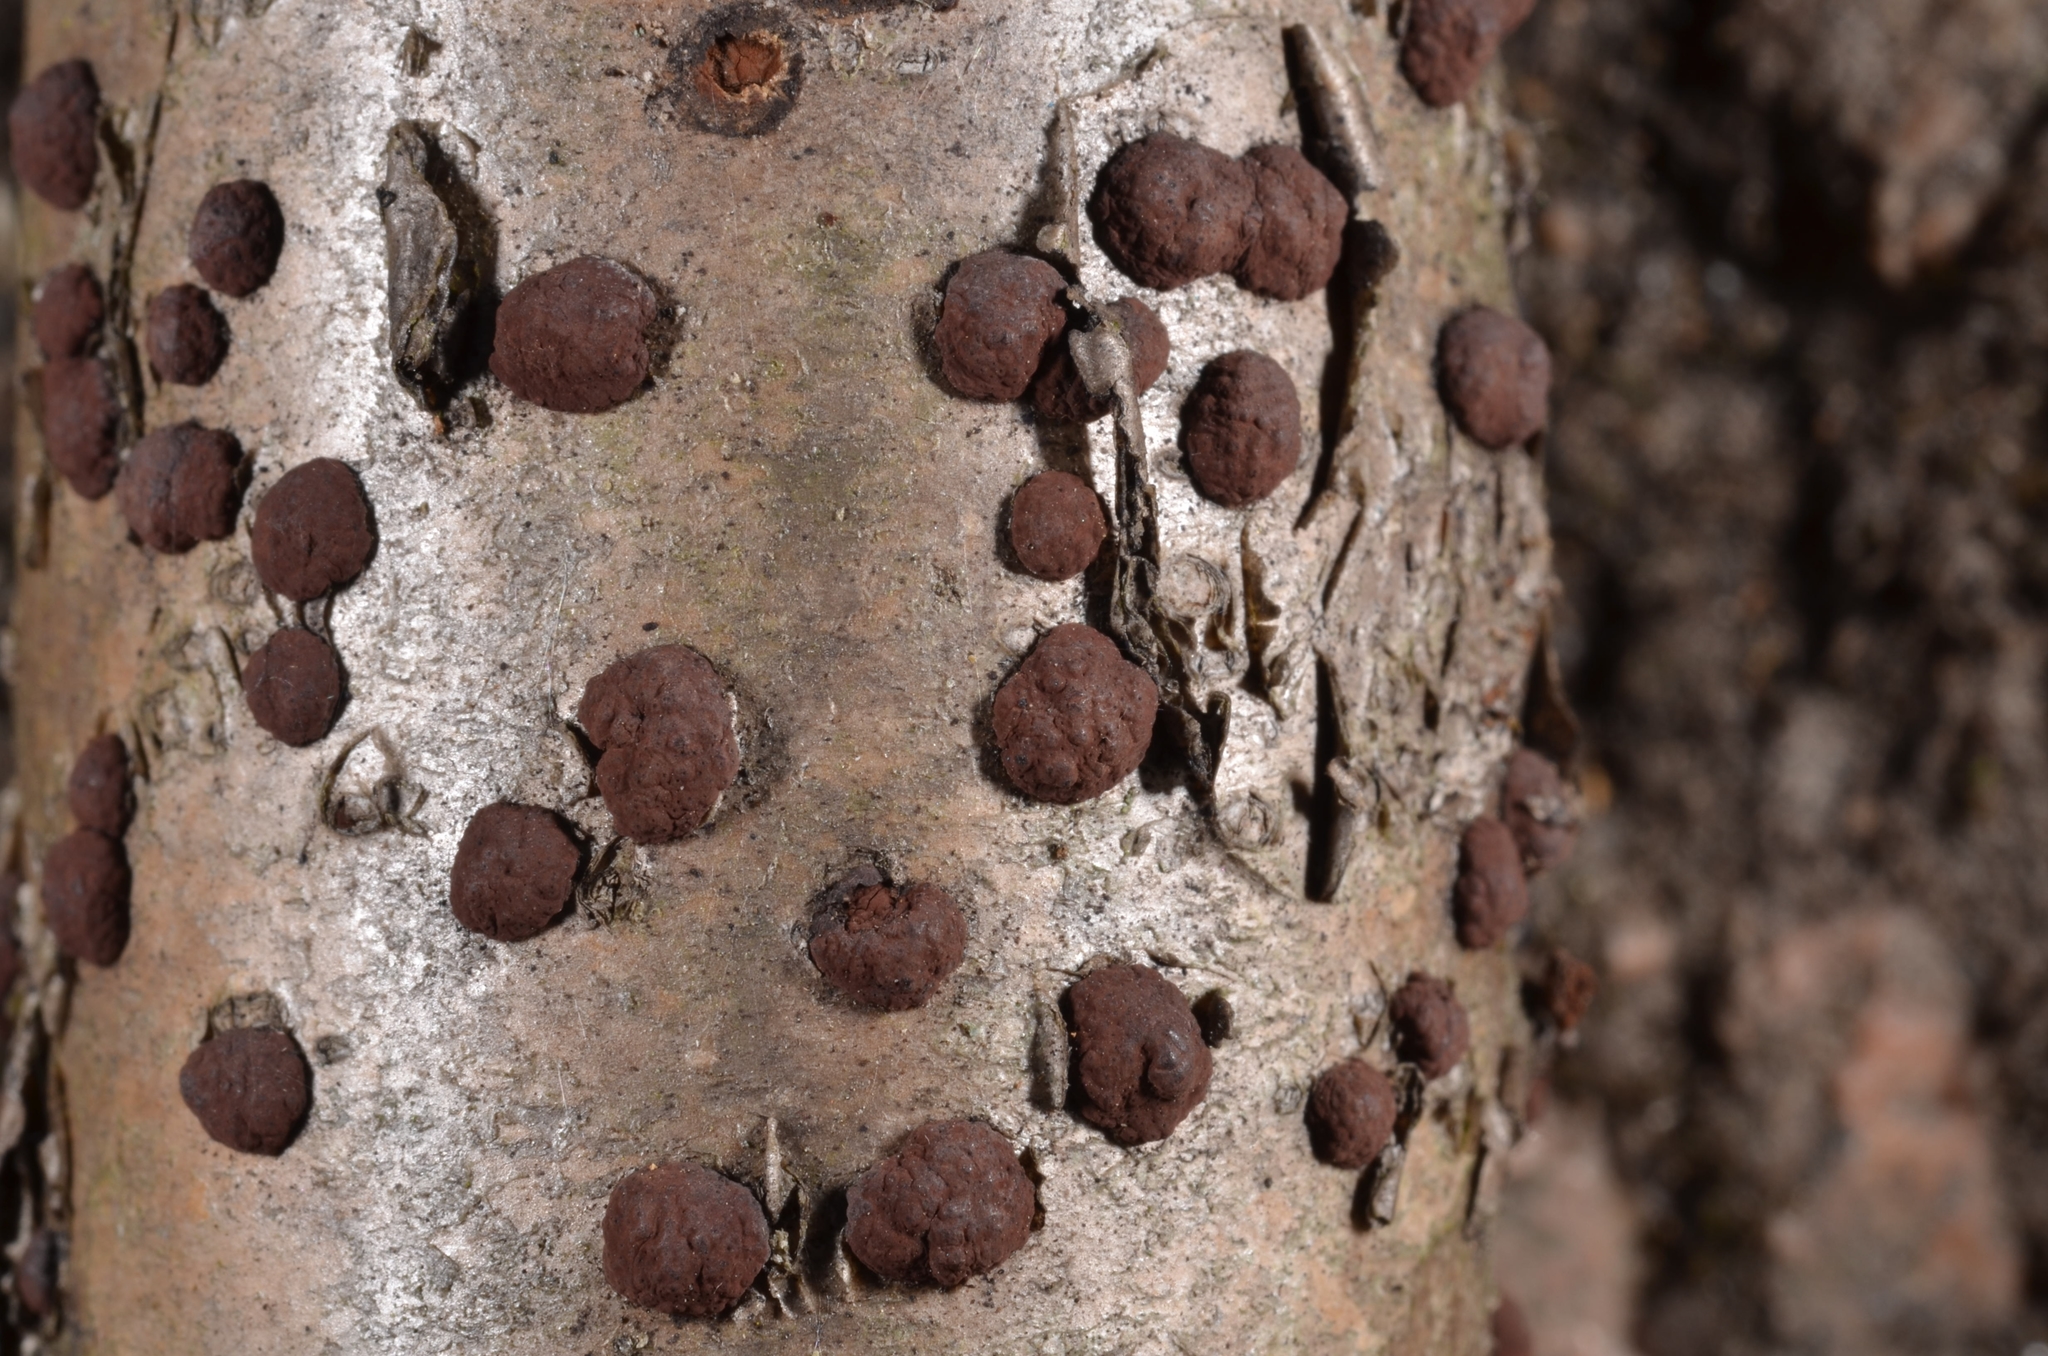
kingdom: Fungi
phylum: Ascomycota
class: Sordariomycetes
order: Xylariales
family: Hypoxylaceae
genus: Hypoxylon
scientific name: Hypoxylon fuscum
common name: Hazel woodwart
